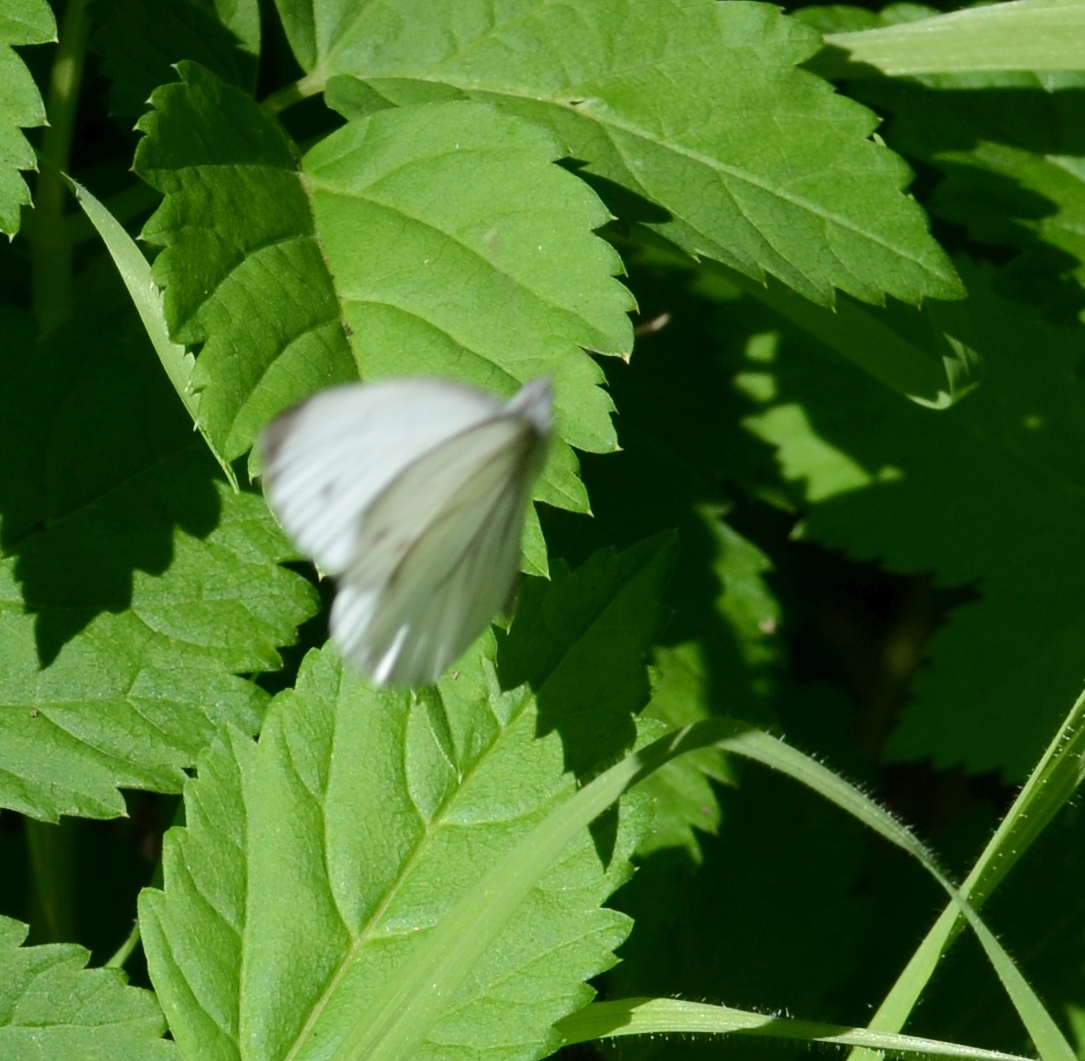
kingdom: Animalia
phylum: Arthropoda
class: Insecta
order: Lepidoptera
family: Pieridae
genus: Pieris
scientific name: Pieris napi
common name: Green-veined white
